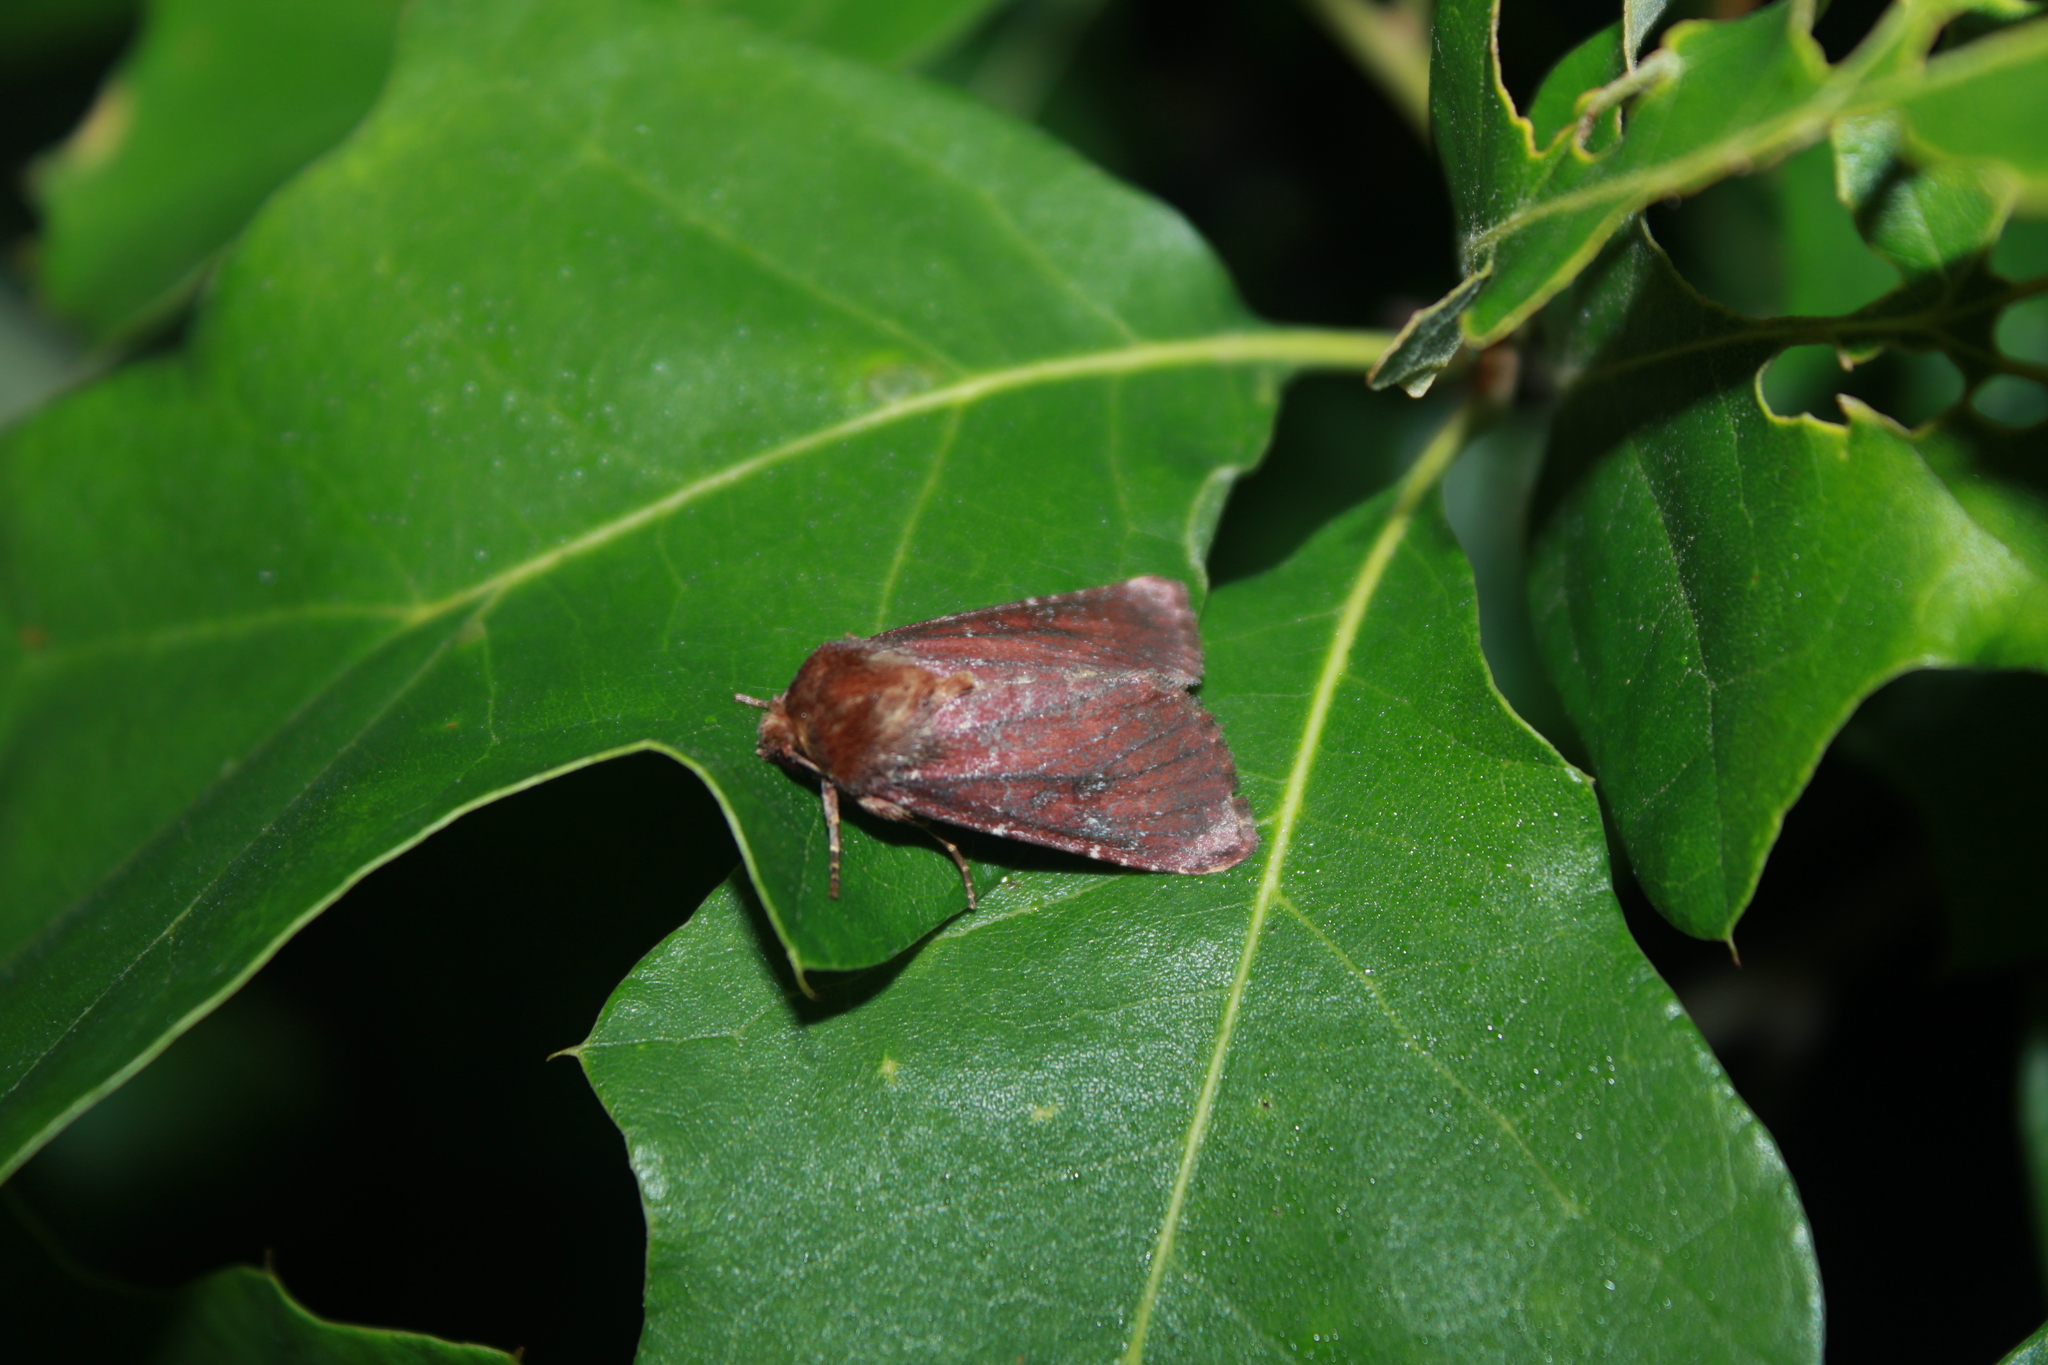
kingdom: Animalia
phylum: Arthropoda
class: Insecta
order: Lepidoptera
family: Noctuidae
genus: Sideridis
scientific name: Sideridis maryx
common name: Maroonwing moth
